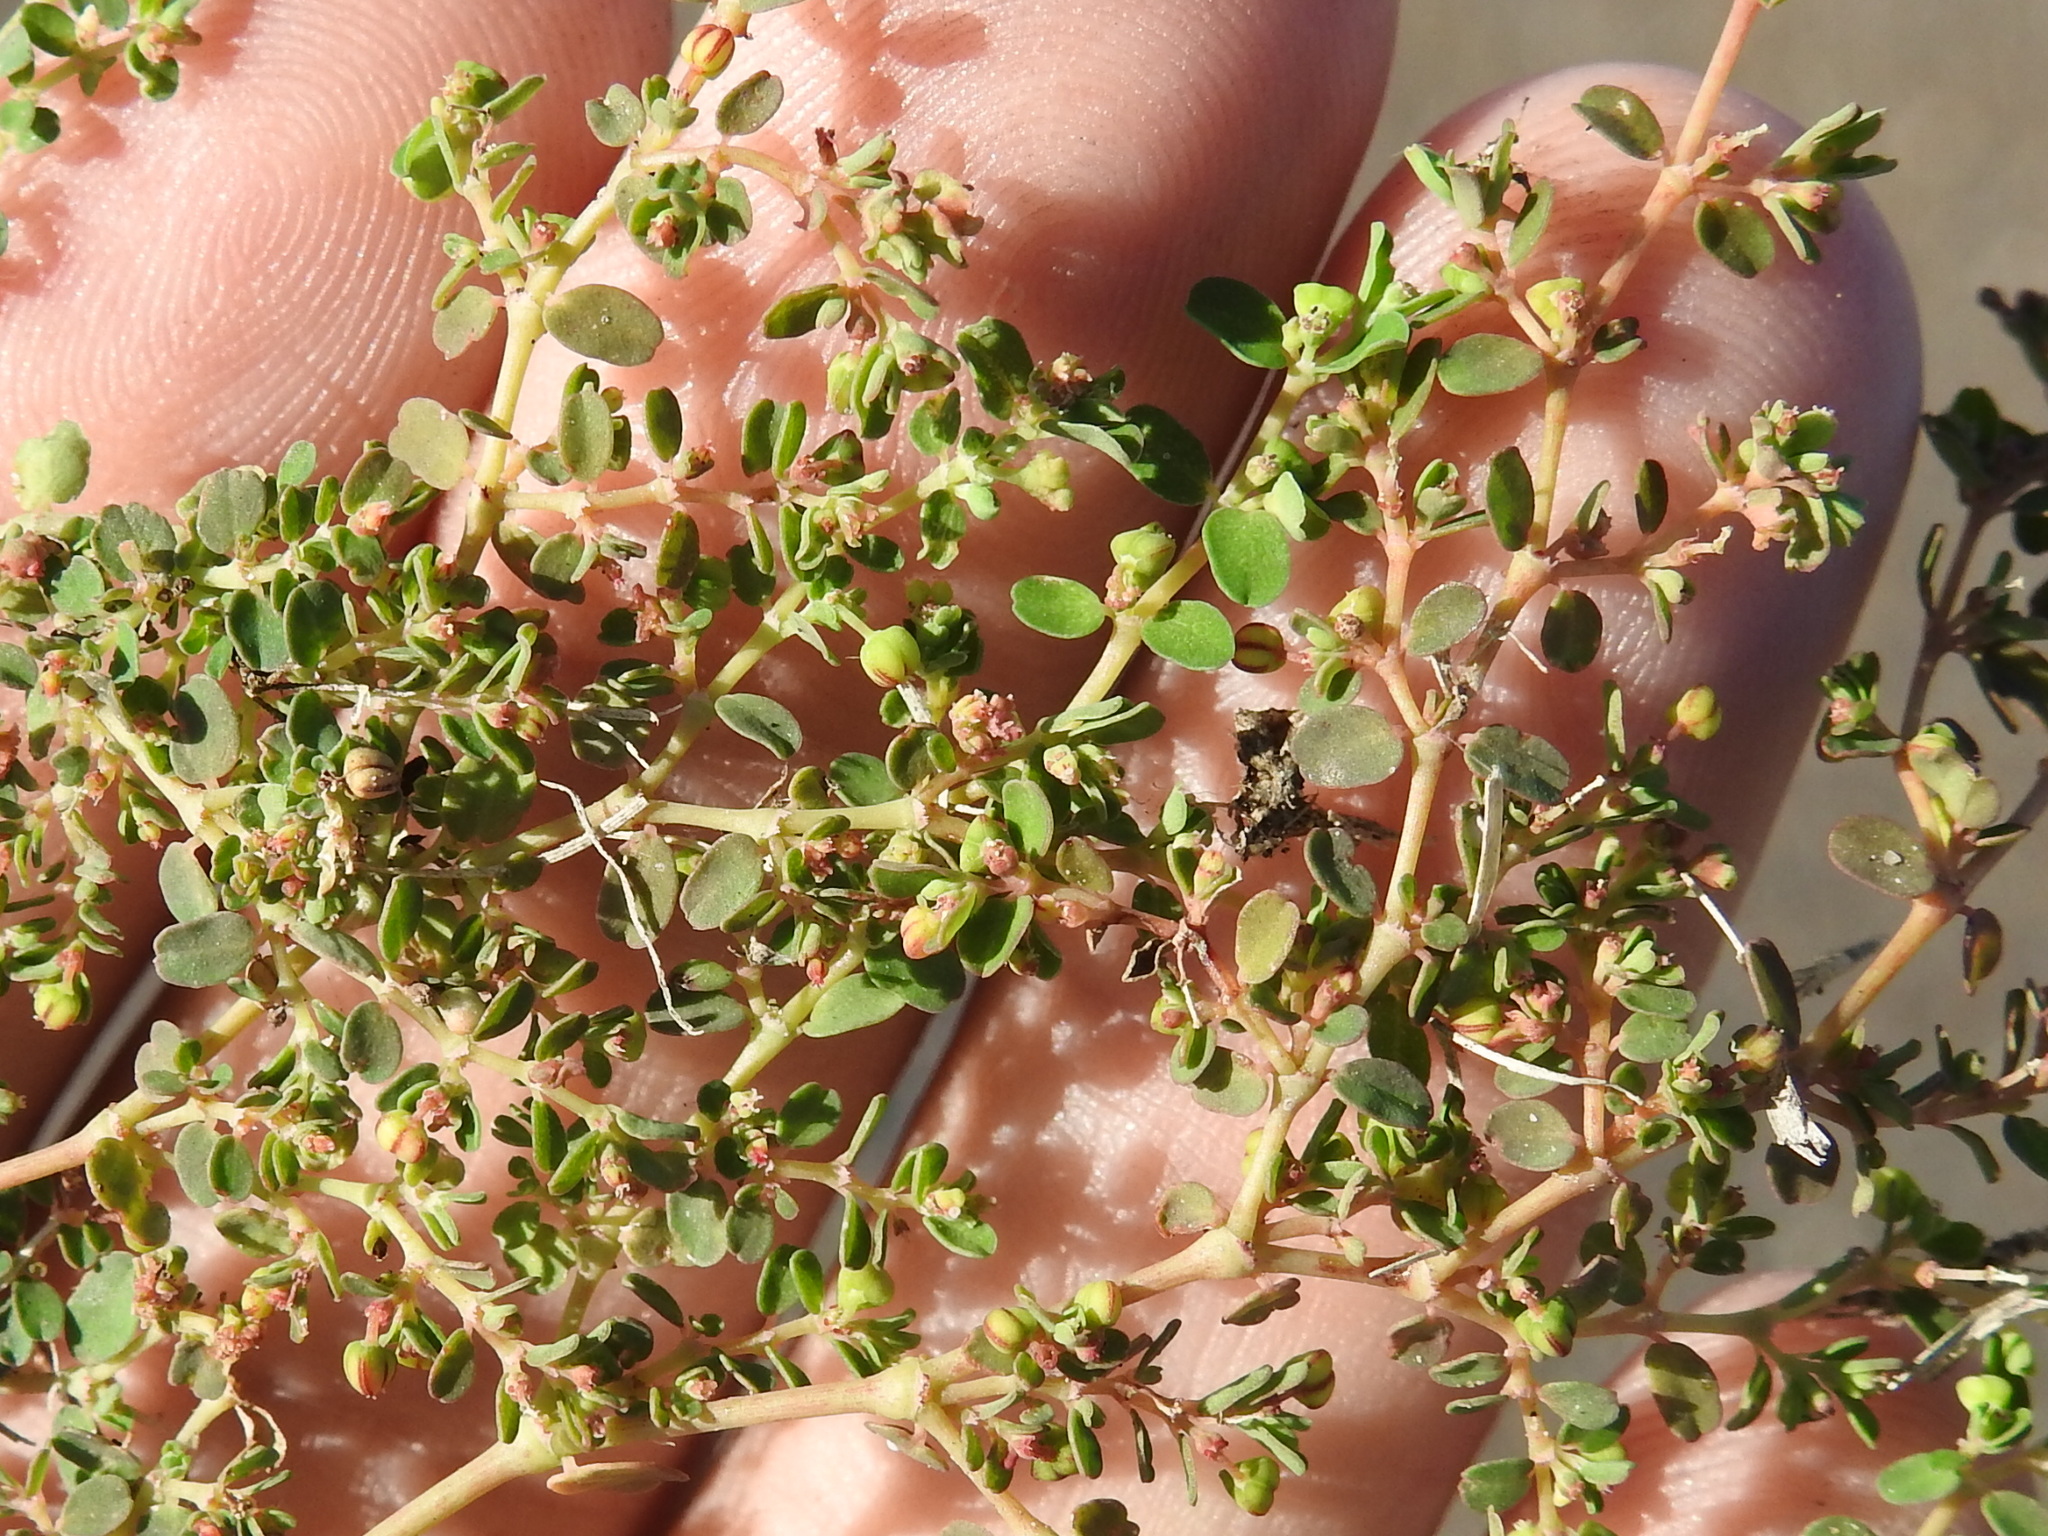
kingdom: Plantae
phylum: Tracheophyta
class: Magnoliopsida
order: Malpighiales
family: Euphorbiaceae
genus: Euphorbia
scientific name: Euphorbia serpens
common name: Matted sandmat
